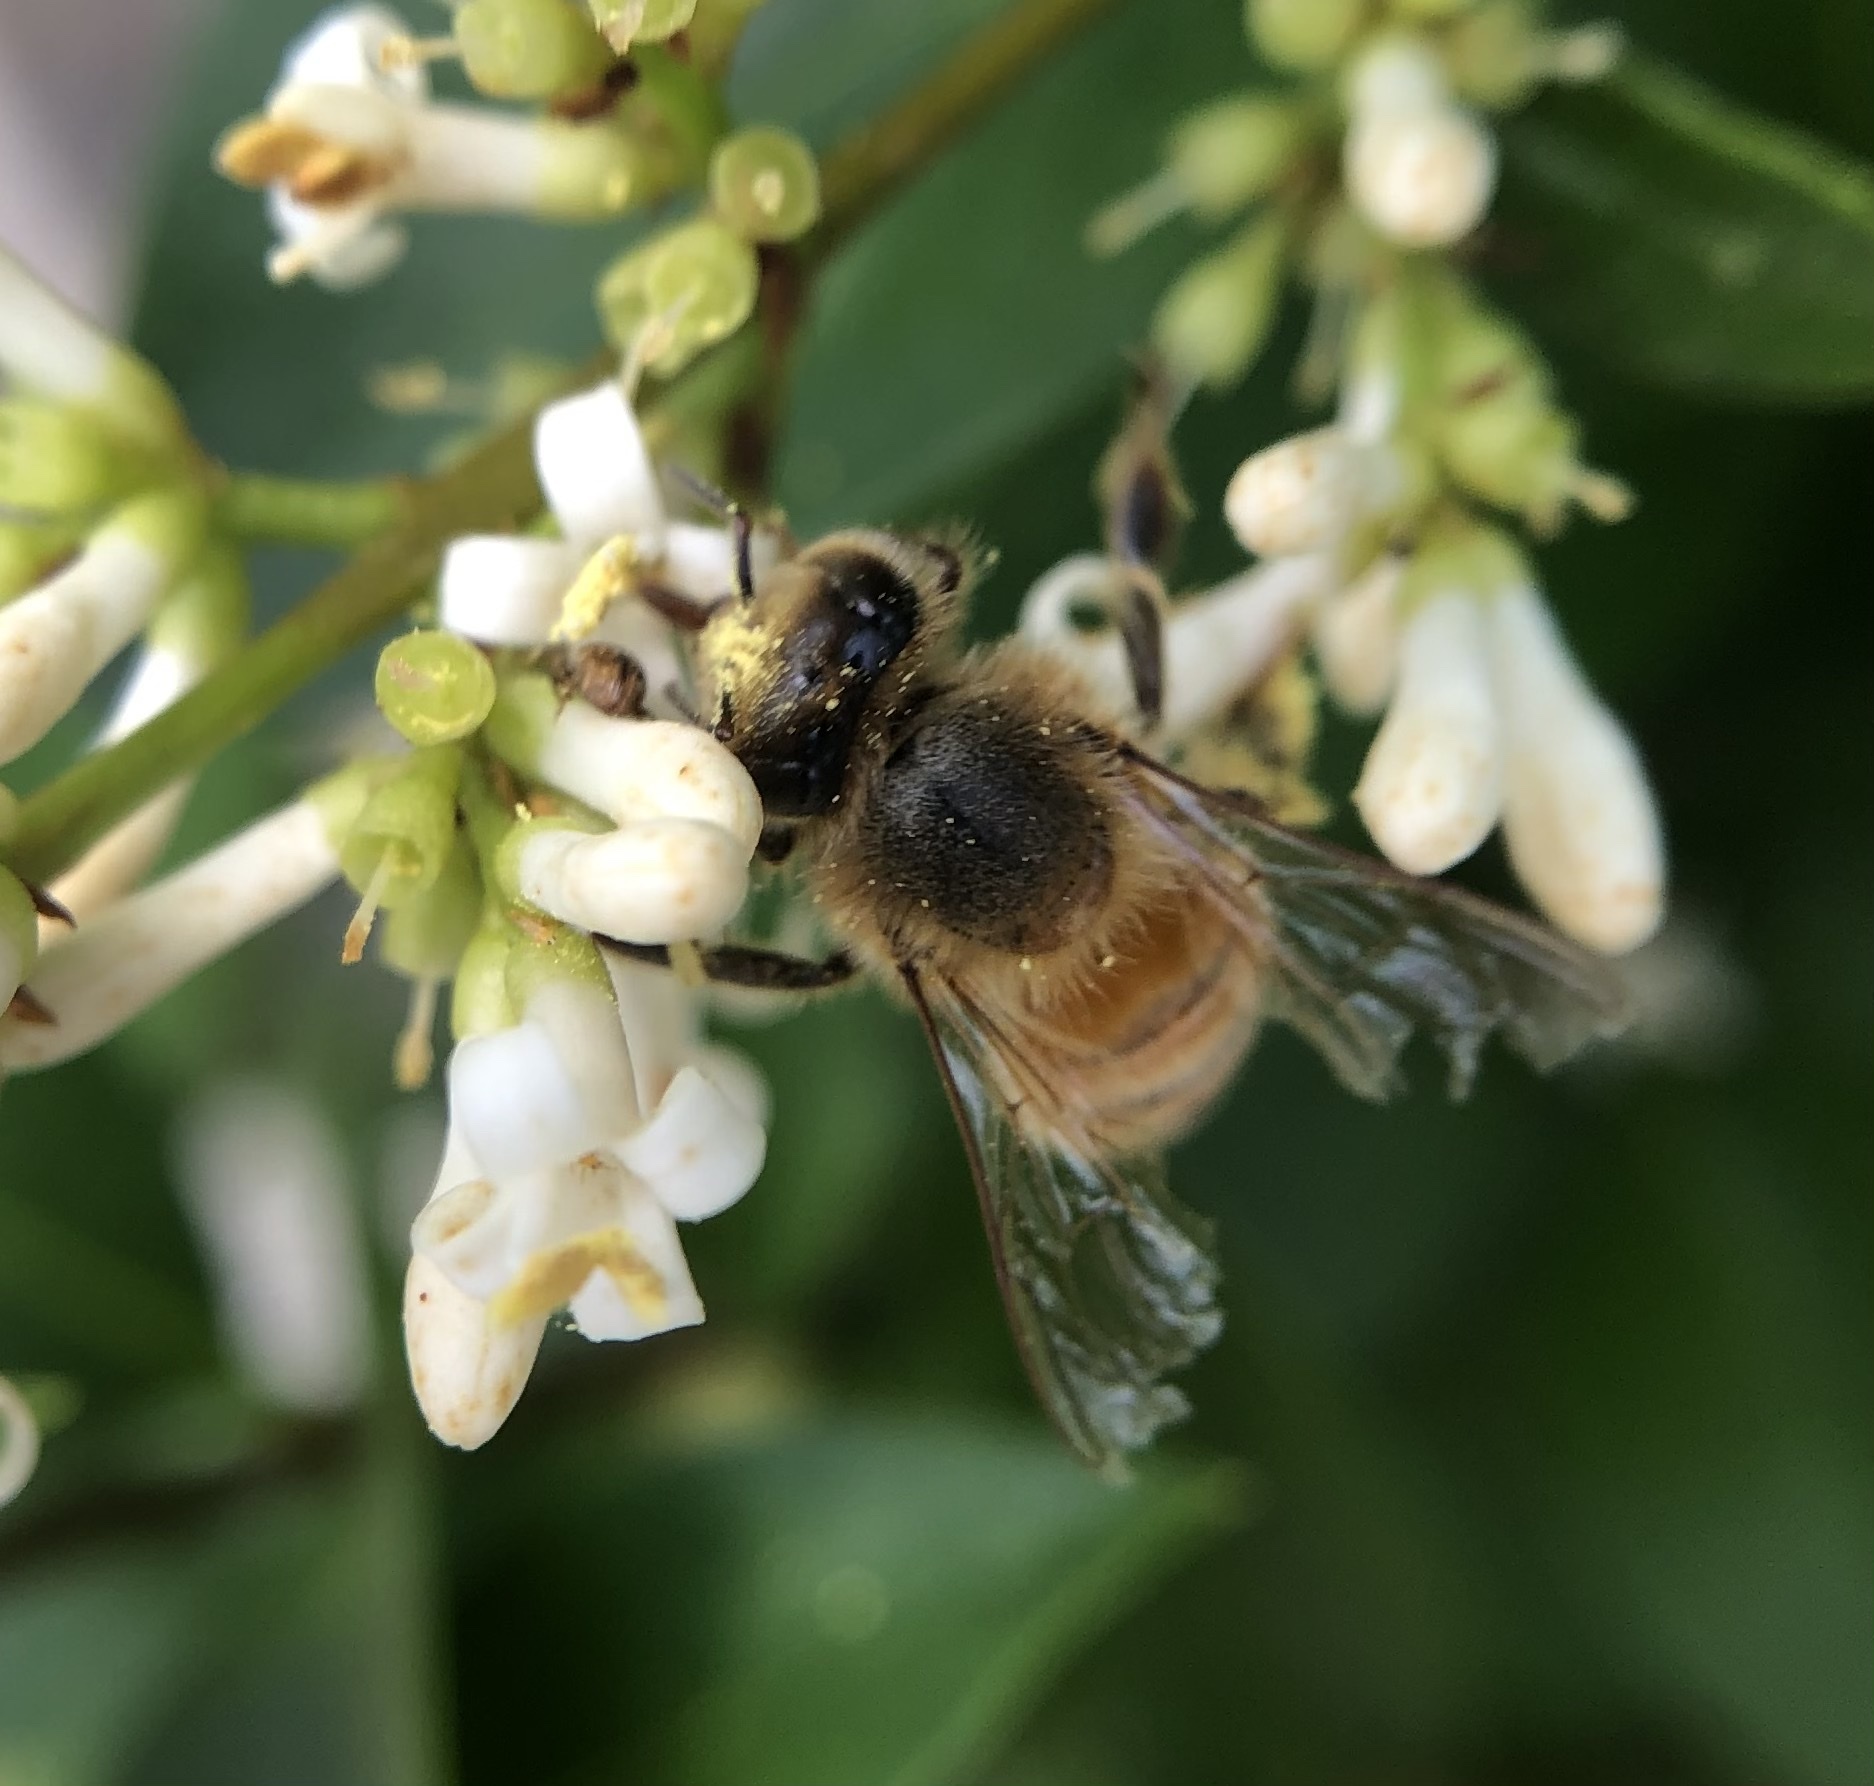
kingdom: Animalia
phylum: Arthropoda
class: Insecta
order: Hymenoptera
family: Apidae
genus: Apis
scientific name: Apis mellifera
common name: Honey bee
